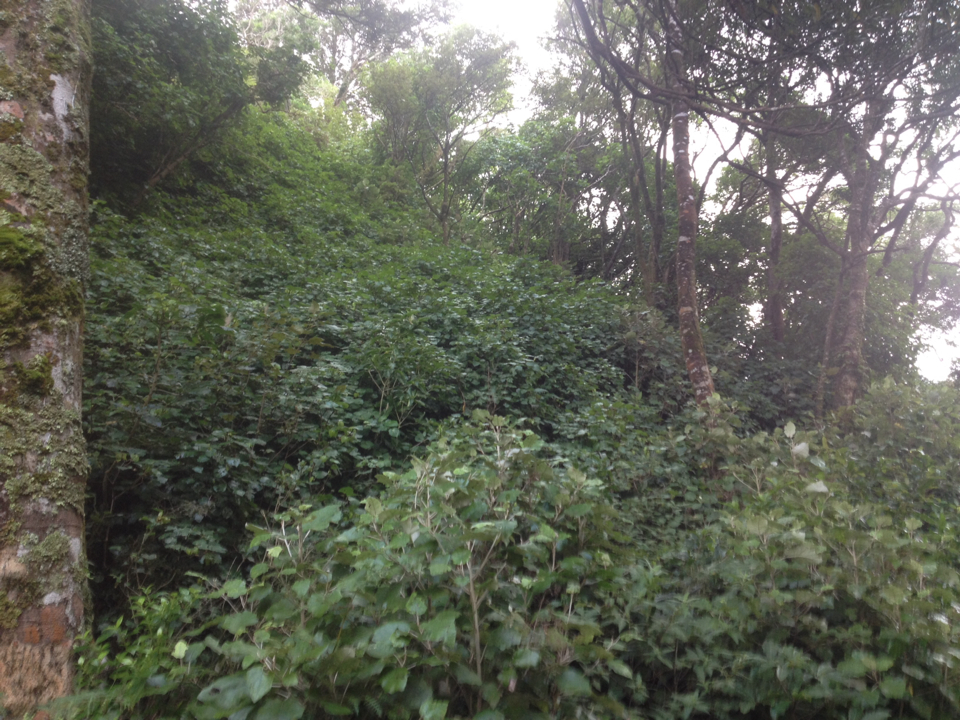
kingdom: Plantae
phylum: Tracheophyta
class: Magnoliopsida
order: Piperales
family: Piperaceae
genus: Macropiper
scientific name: Macropiper excelsum
